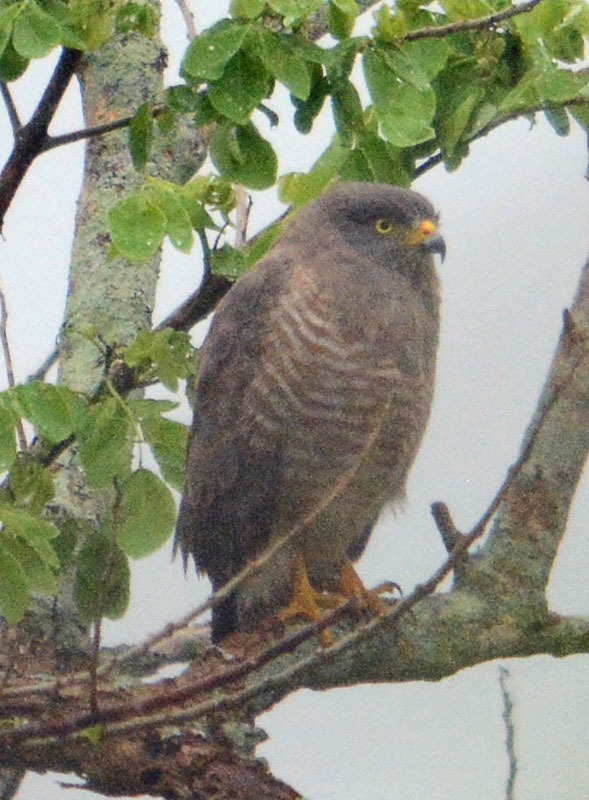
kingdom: Animalia
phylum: Chordata
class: Aves
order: Accipitriformes
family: Accipitridae
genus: Rupornis
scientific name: Rupornis magnirostris
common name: Roadside hawk
